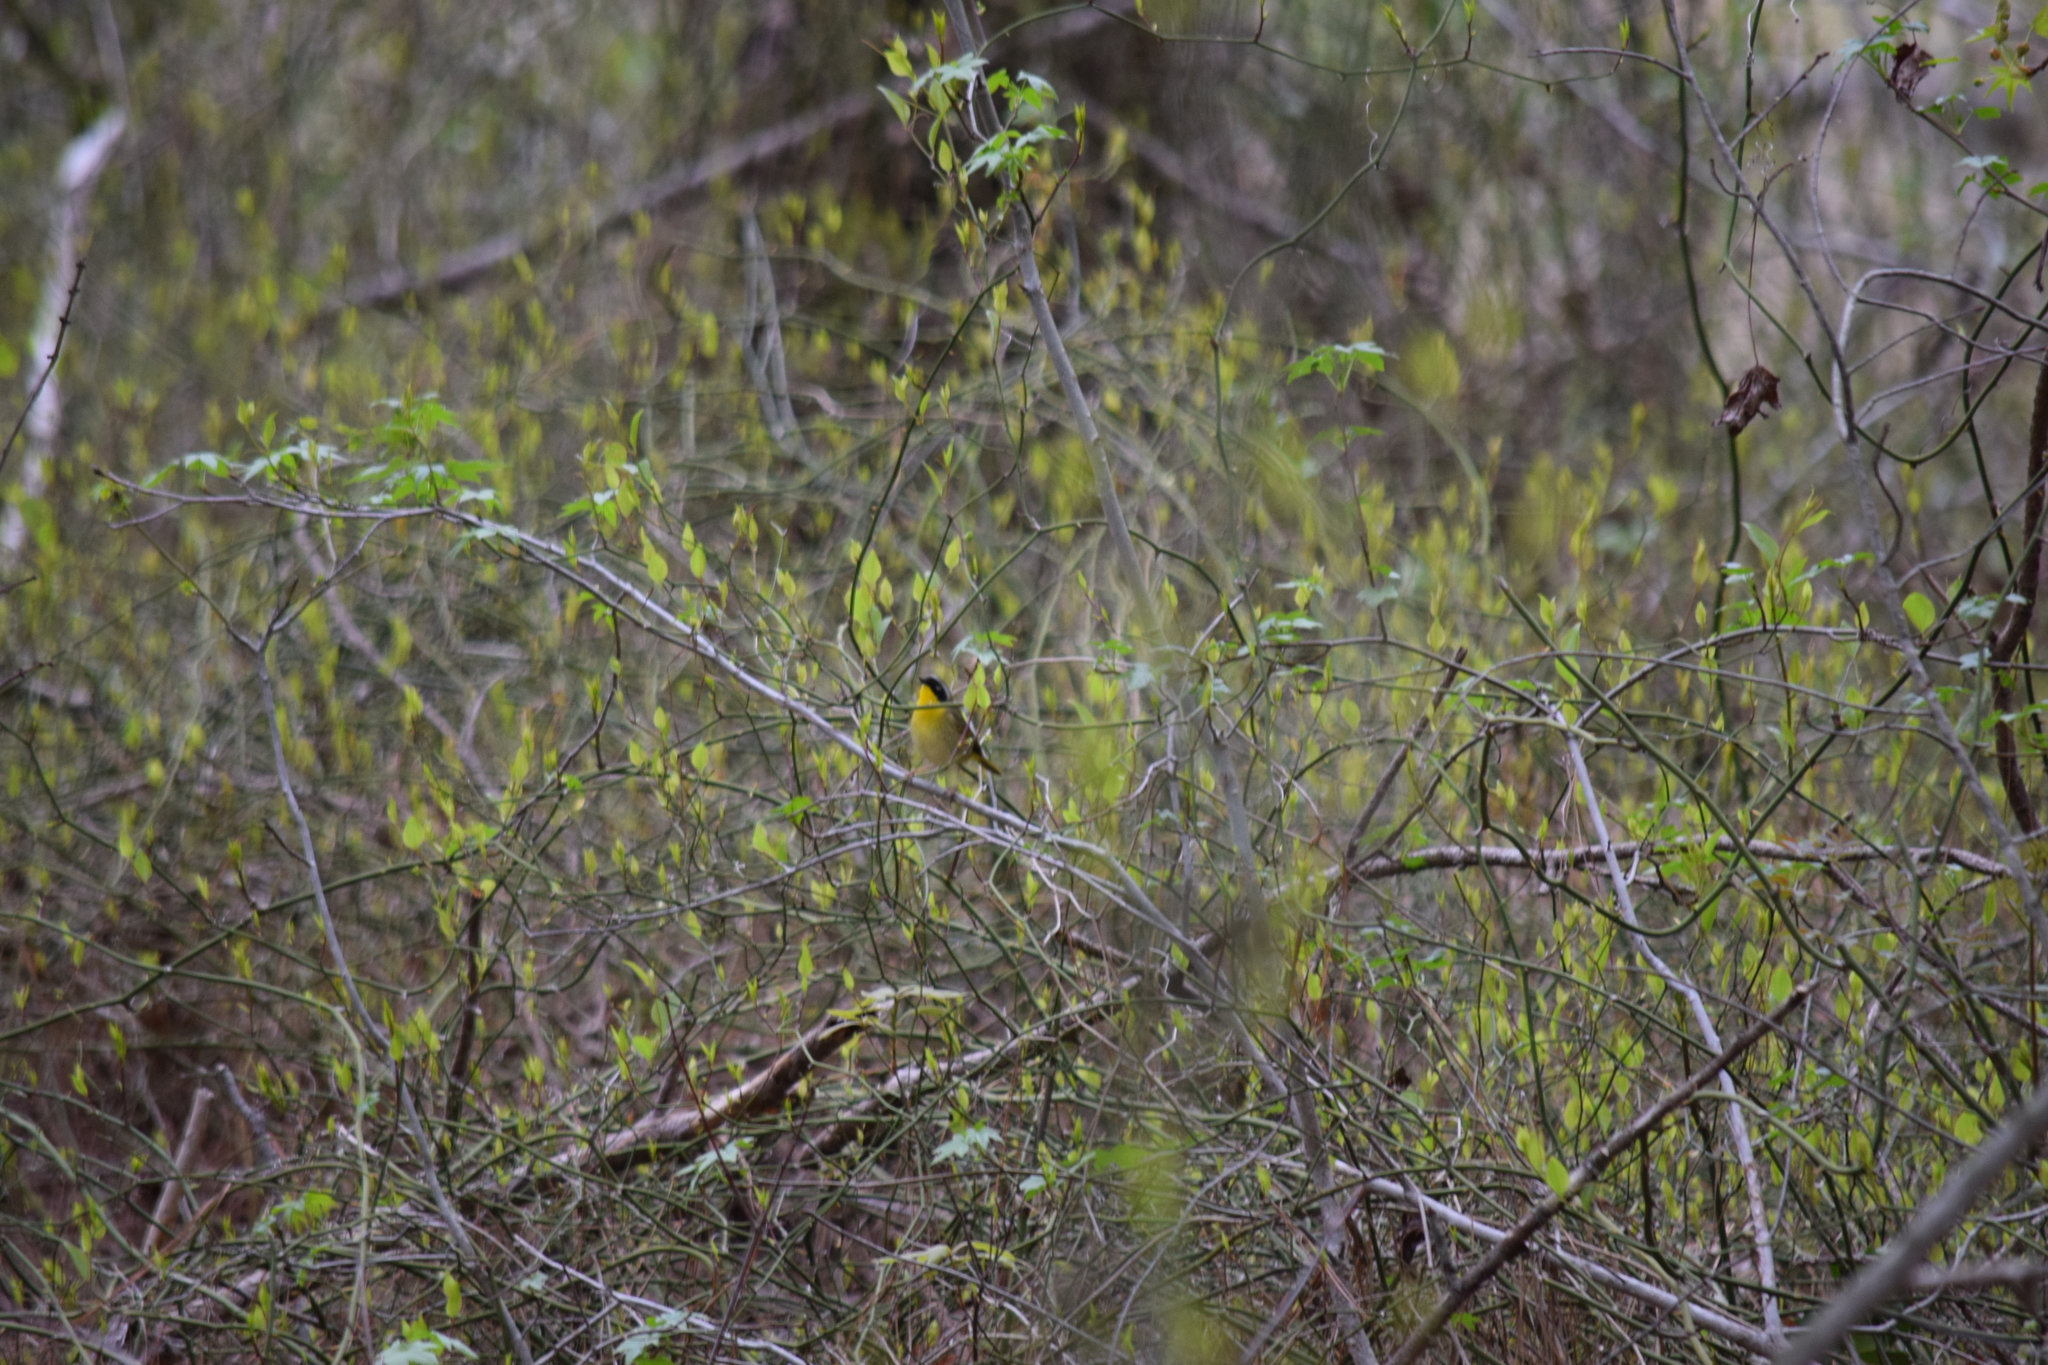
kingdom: Animalia
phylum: Chordata
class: Aves
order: Passeriformes
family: Parulidae
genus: Geothlypis
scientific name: Geothlypis trichas
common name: Common yellowthroat
